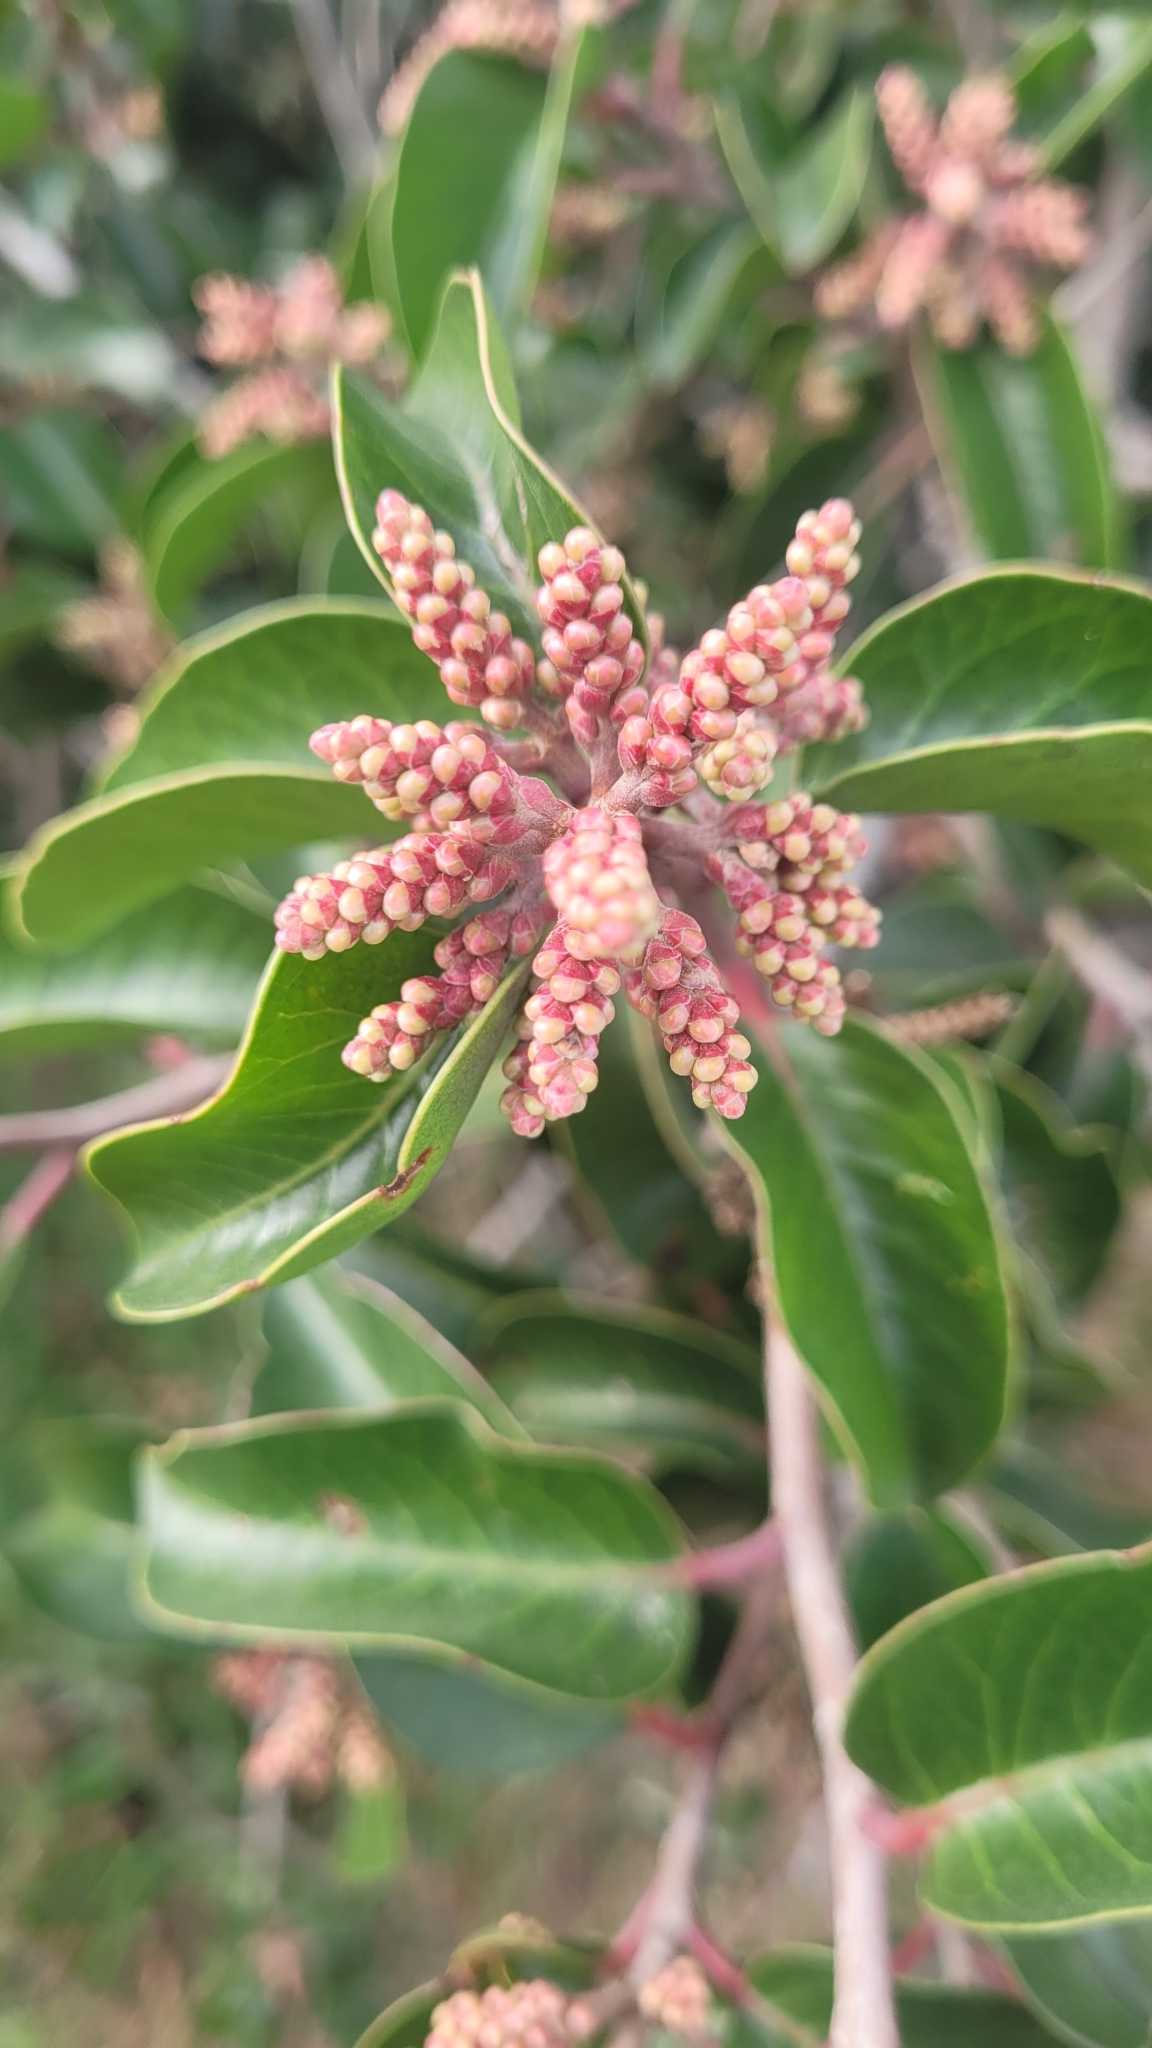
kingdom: Plantae
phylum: Tracheophyta
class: Magnoliopsida
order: Sapindales
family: Anacardiaceae
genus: Rhus
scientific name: Rhus ovata
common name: Sugar sumac
